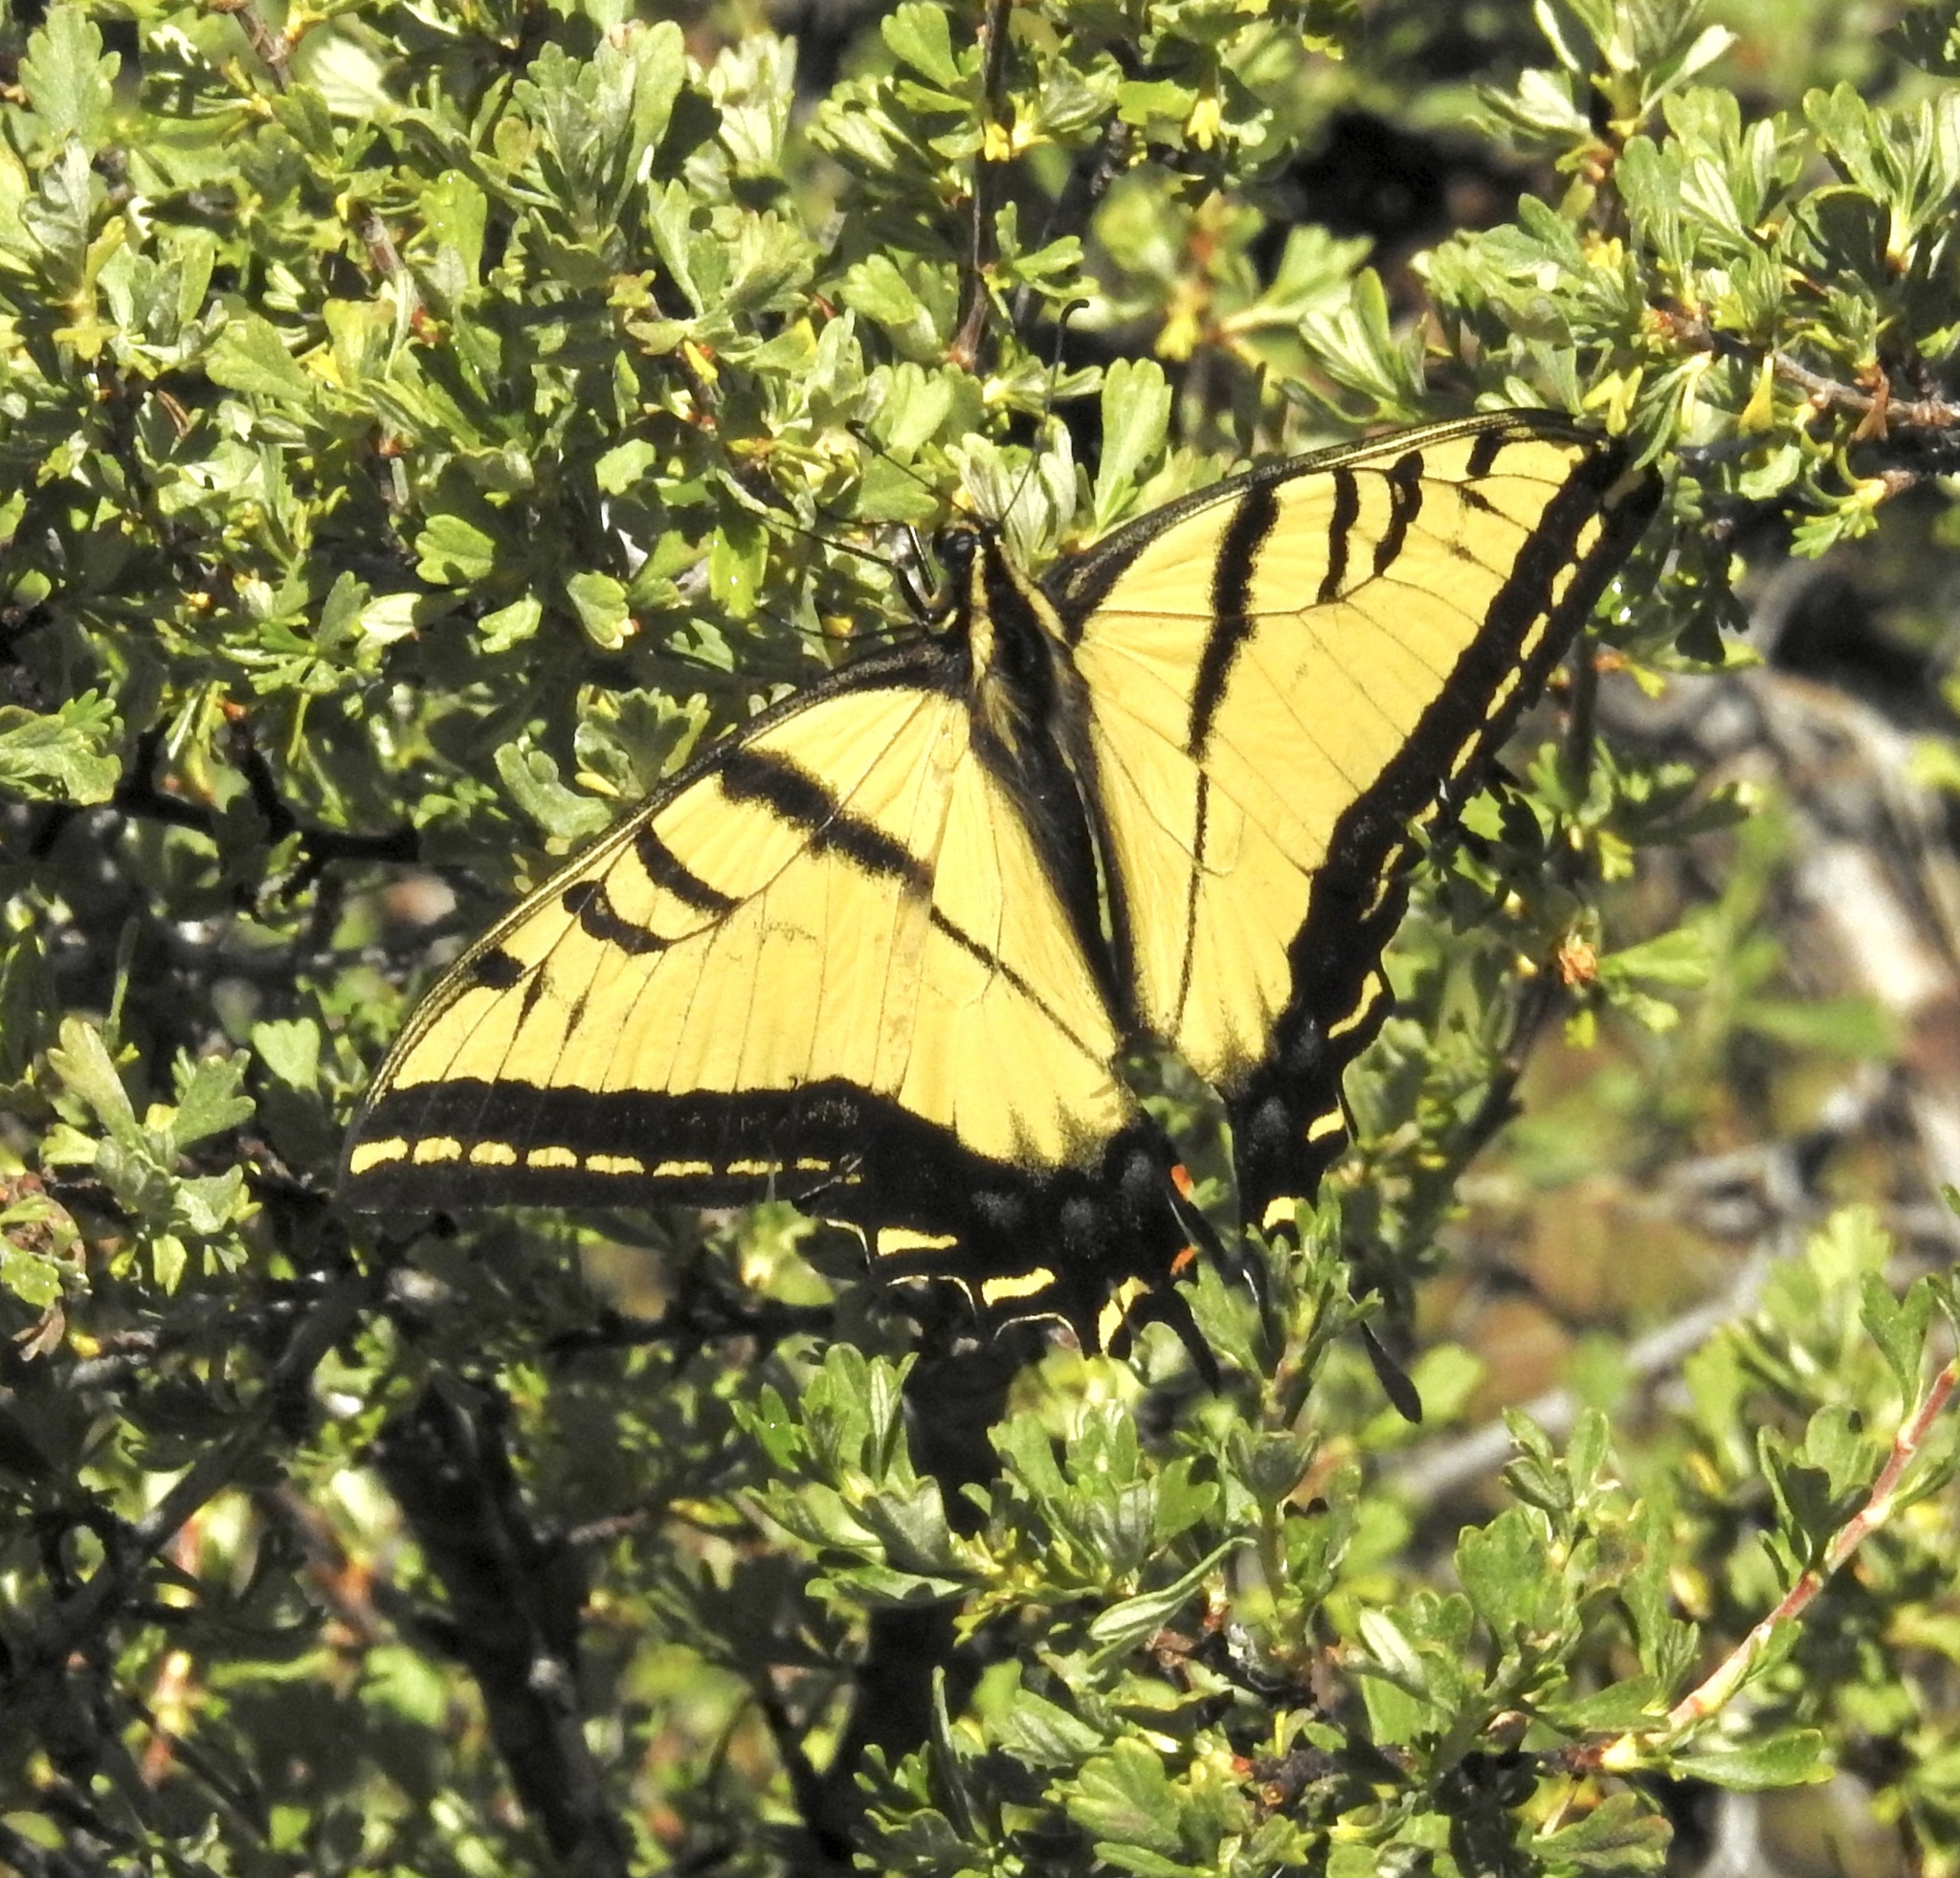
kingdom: Animalia
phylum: Arthropoda
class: Insecta
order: Lepidoptera
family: Papilionidae
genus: Papilio
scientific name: Papilio multicaudata
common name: Two-tailed tiger swallowtail
